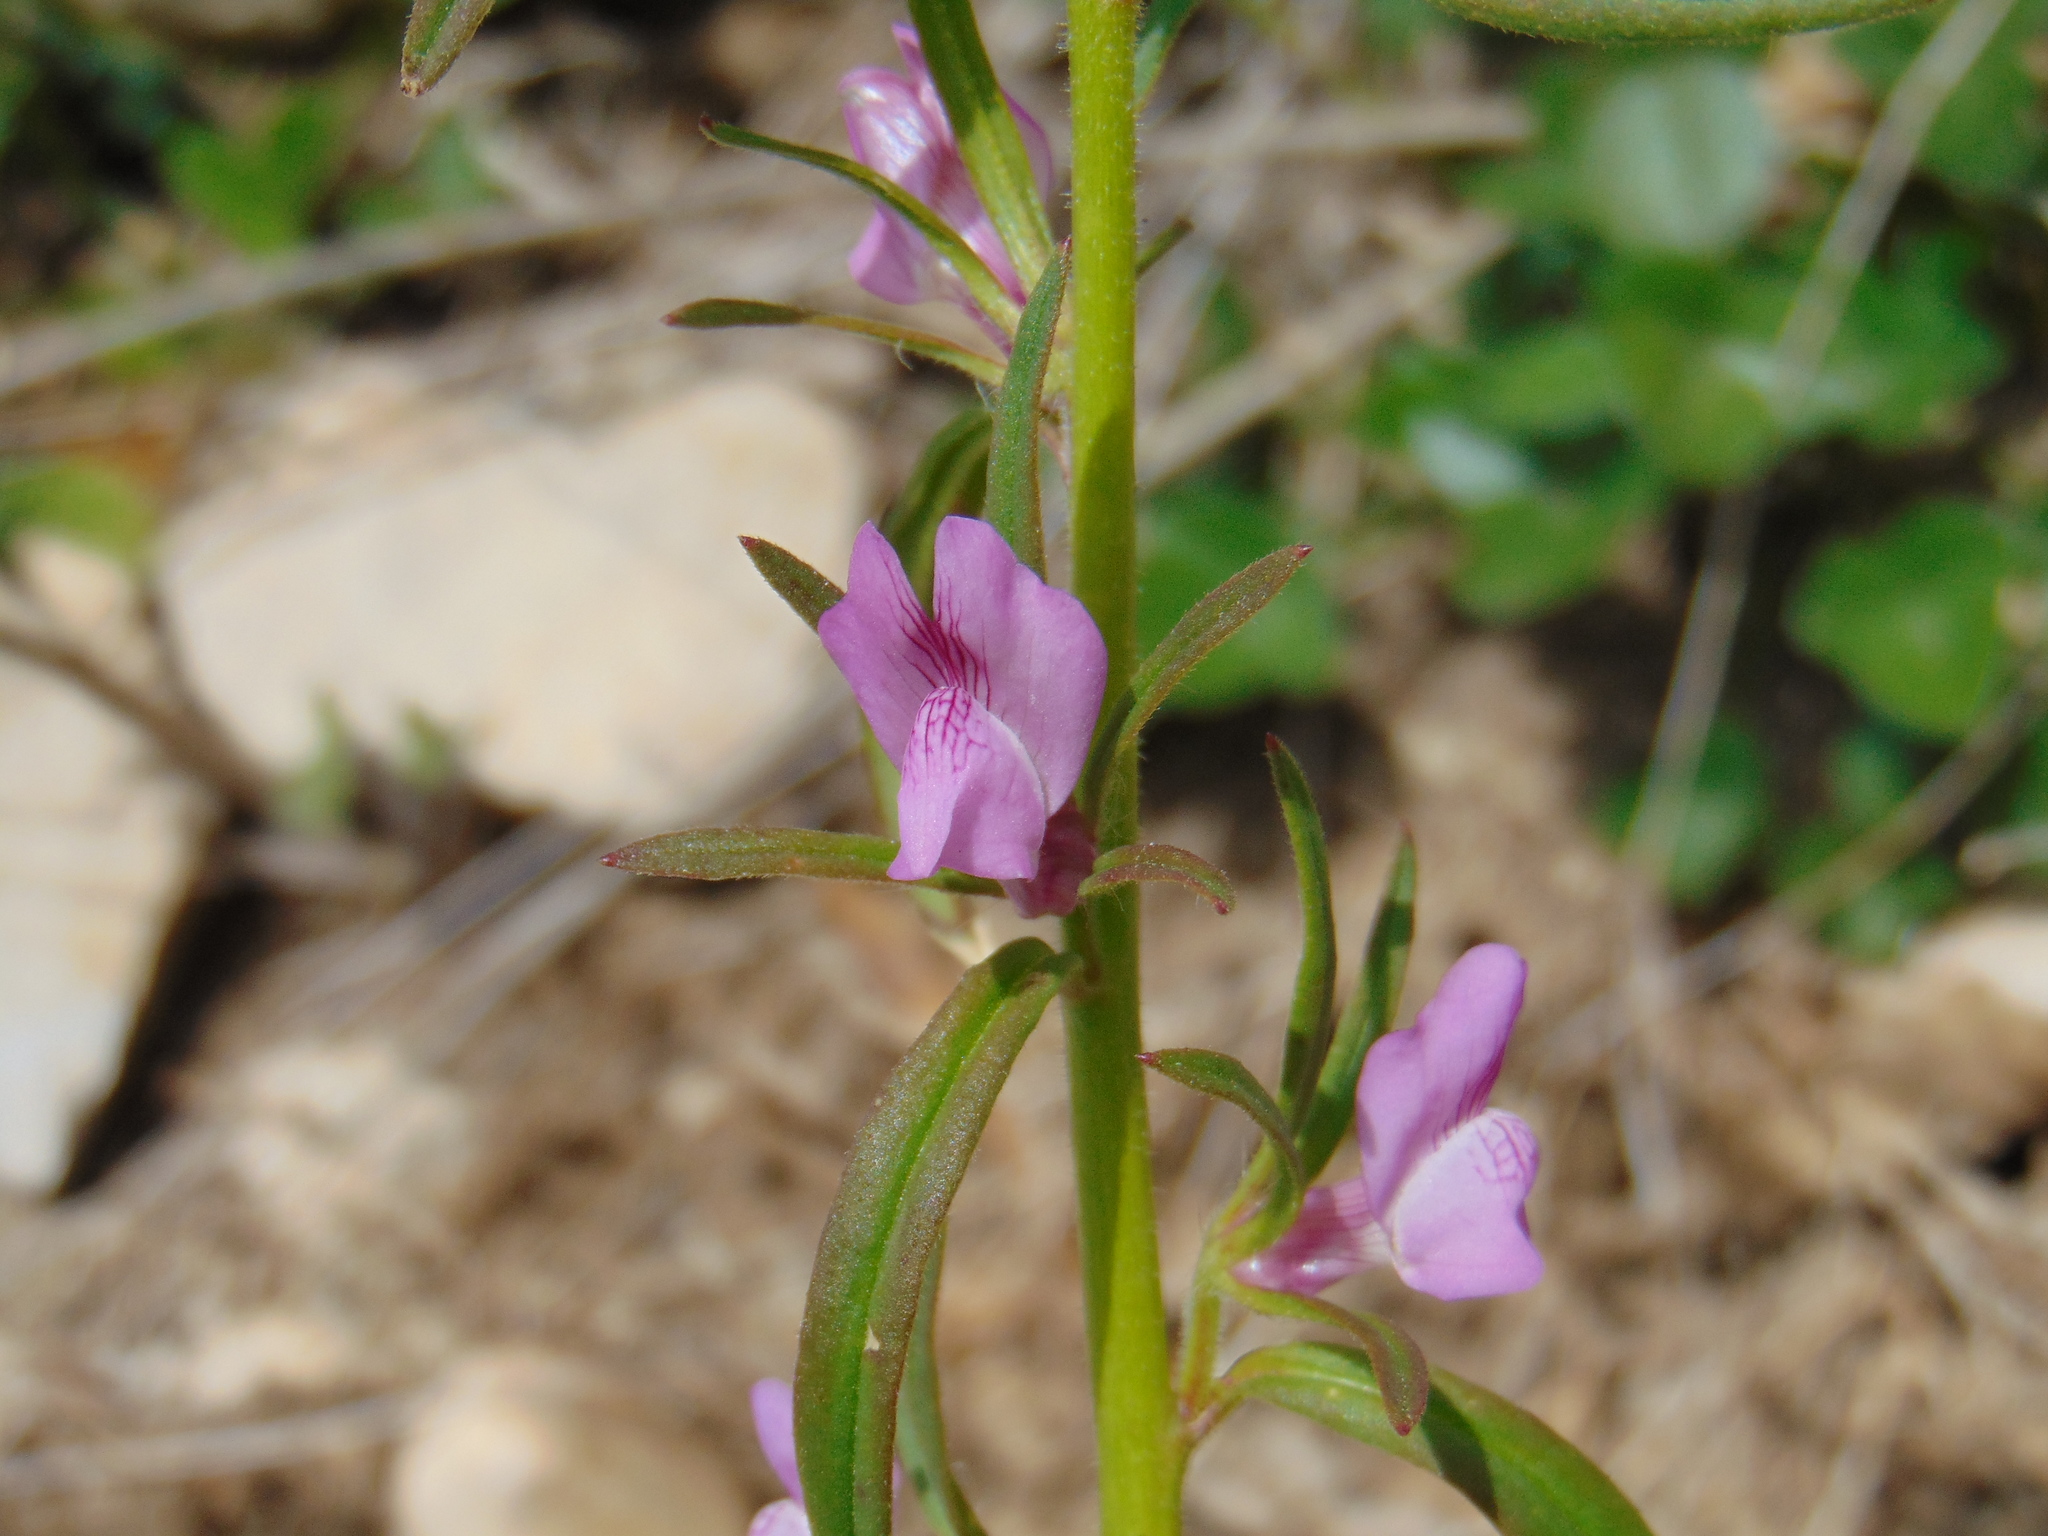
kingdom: Plantae
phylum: Tracheophyta
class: Magnoliopsida
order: Lamiales
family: Plantaginaceae
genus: Misopates
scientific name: Misopates orontium
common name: Weasel's-snout
